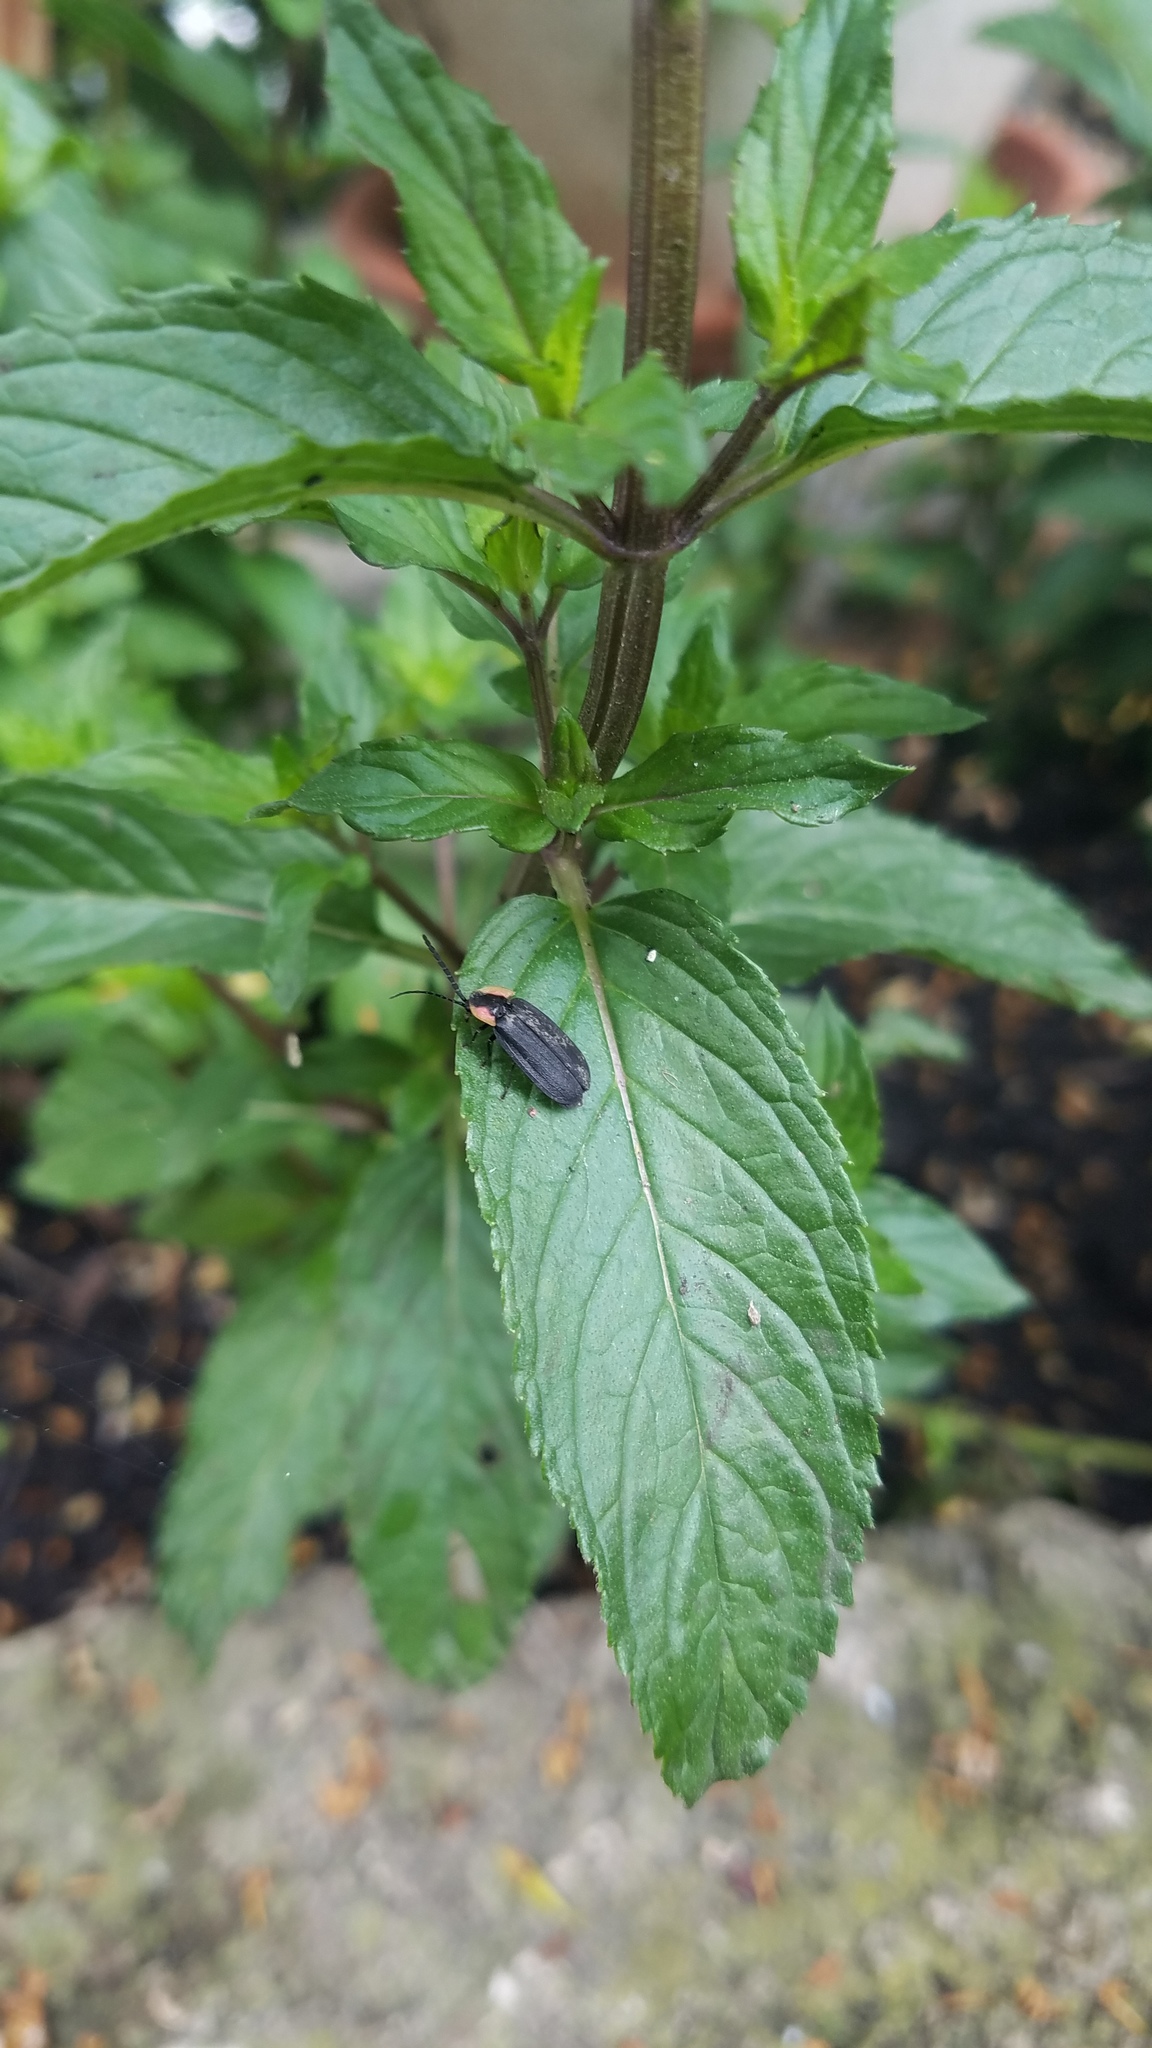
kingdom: Animalia
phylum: Arthropoda
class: Insecta
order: Coleoptera
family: Lampyridae
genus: Lucidota
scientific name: Lucidota atra
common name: Black firefly
